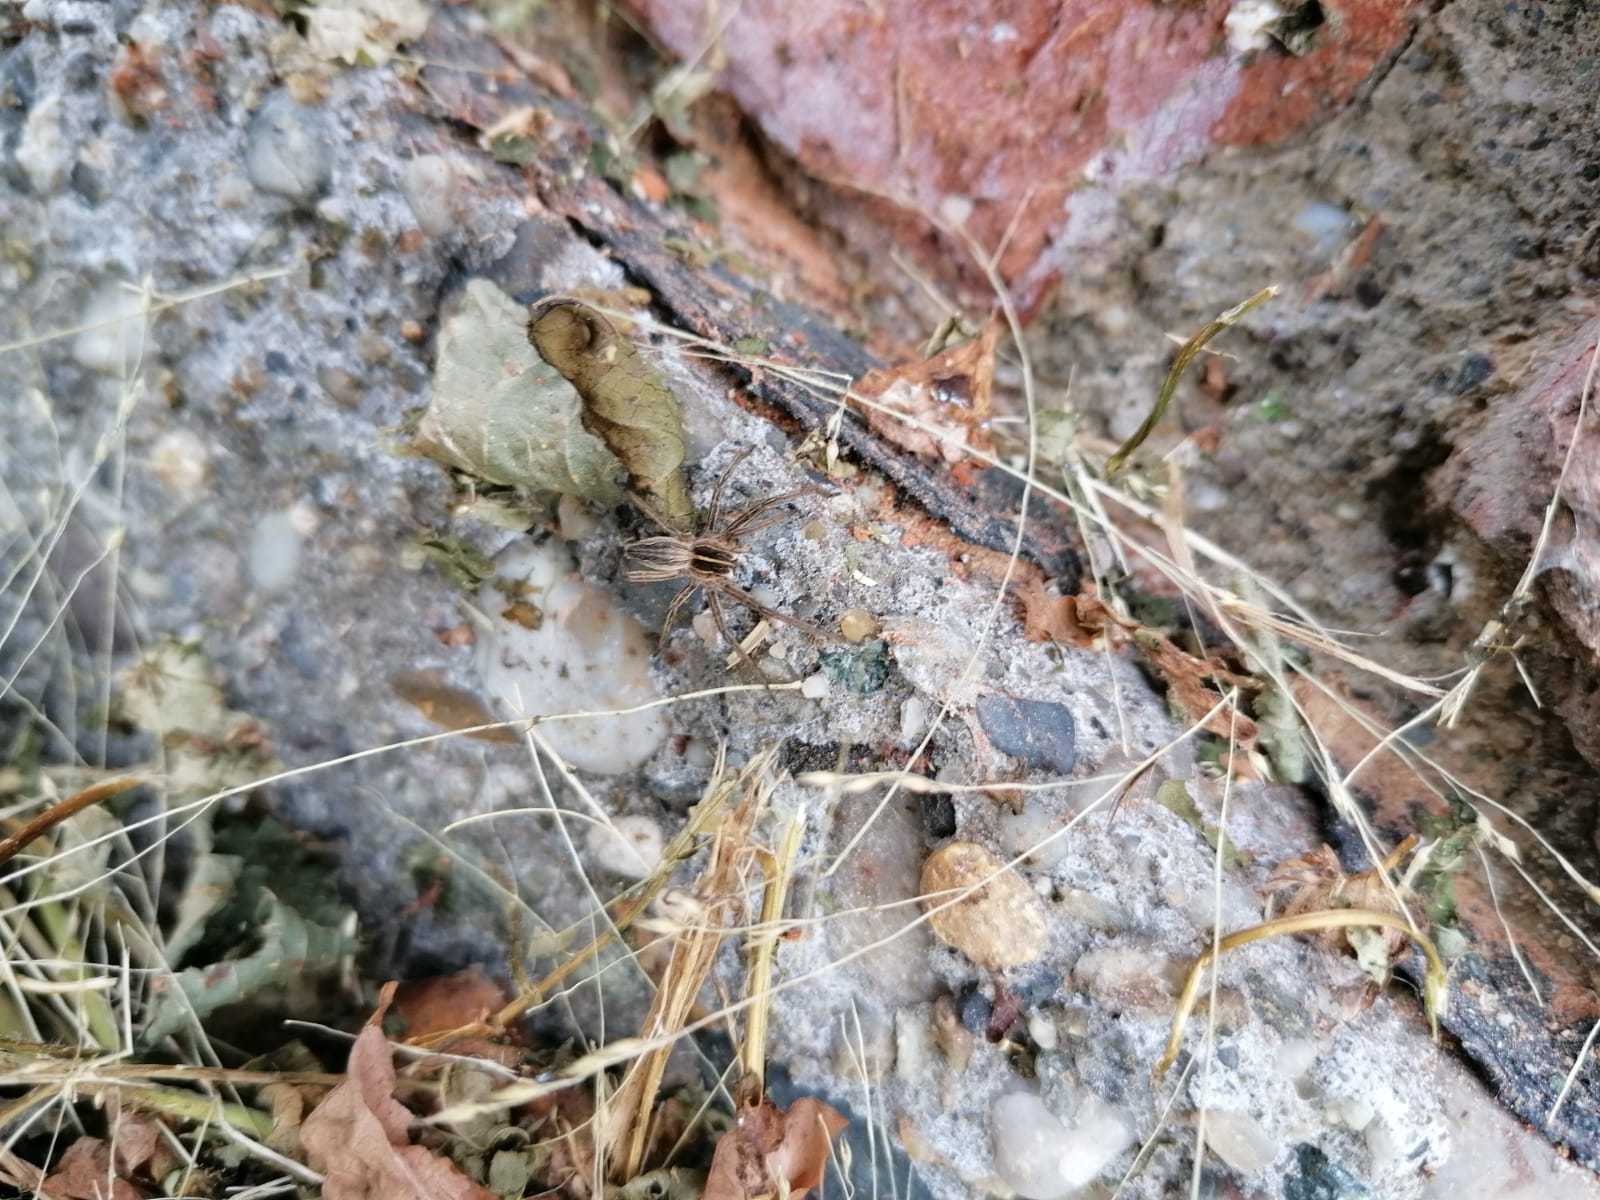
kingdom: Animalia
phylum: Arthropoda
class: Arachnida
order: Araneae
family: Pisauridae
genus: Pisaura
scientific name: Pisaura mirabilis
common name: Tent spider
